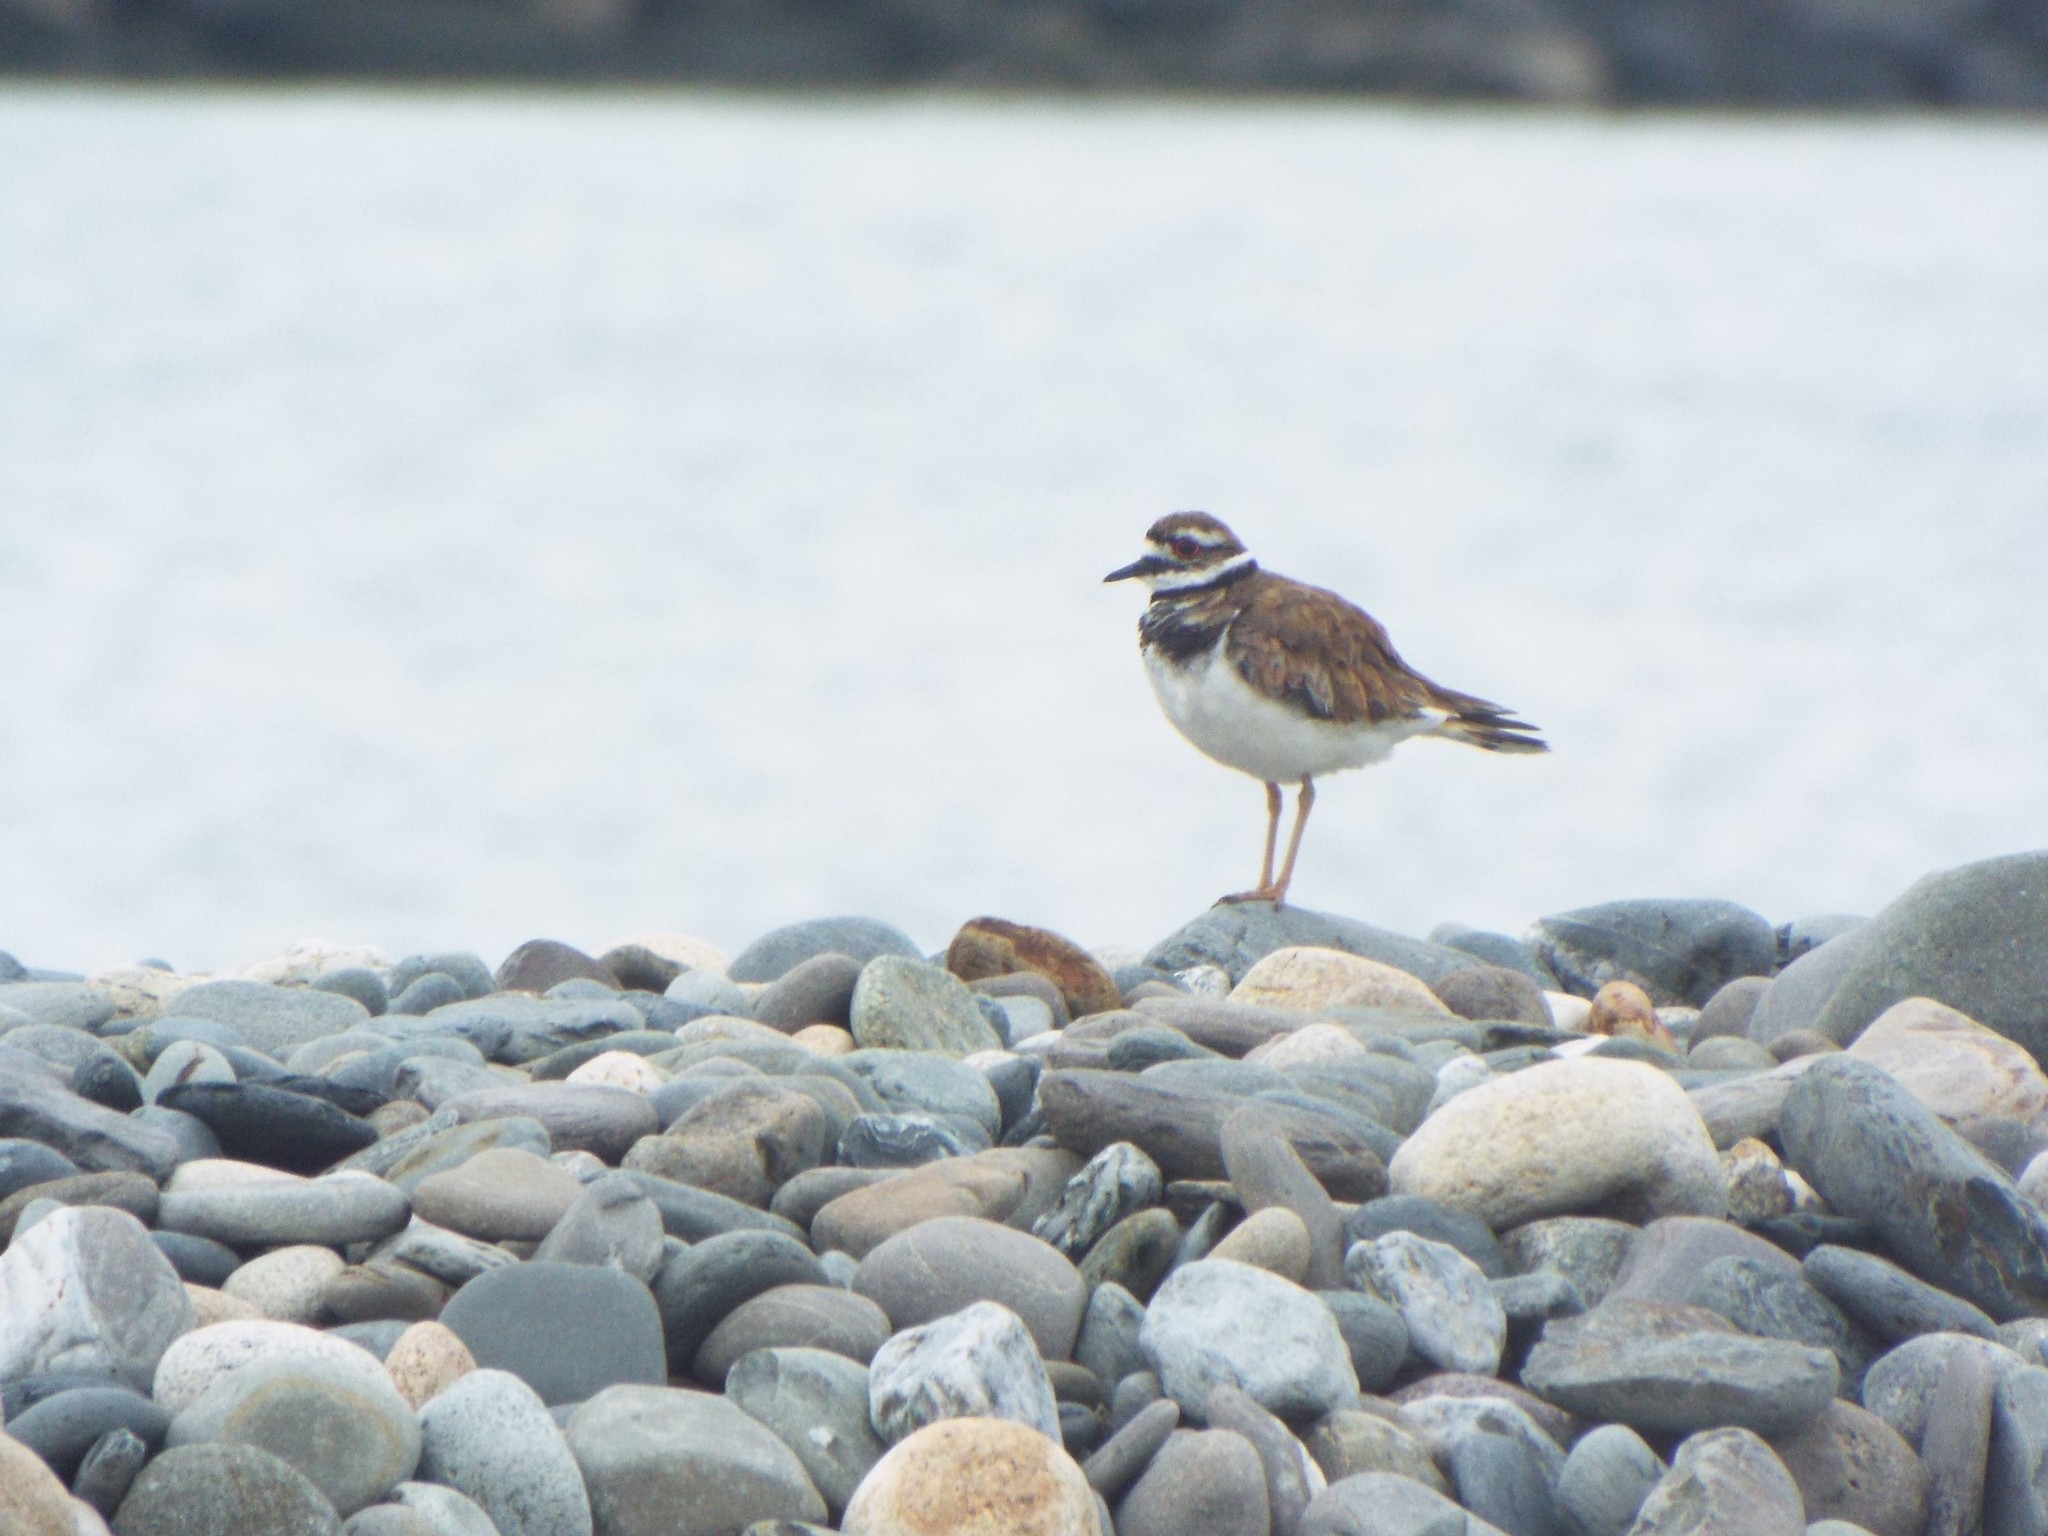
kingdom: Animalia
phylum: Chordata
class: Aves
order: Charadriiformes
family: Charadriidae
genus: Charadrius
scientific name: Charadrius vociferus
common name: Killdeer
